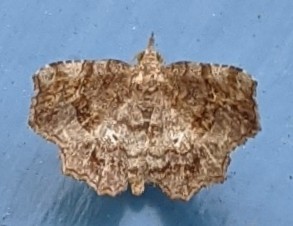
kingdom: Animalia
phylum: Arthropoda
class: Insecta
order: Lepidoptera
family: Erebidae
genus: Pangrapta
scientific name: Pangrapta decoralis
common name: Decorated owlet
